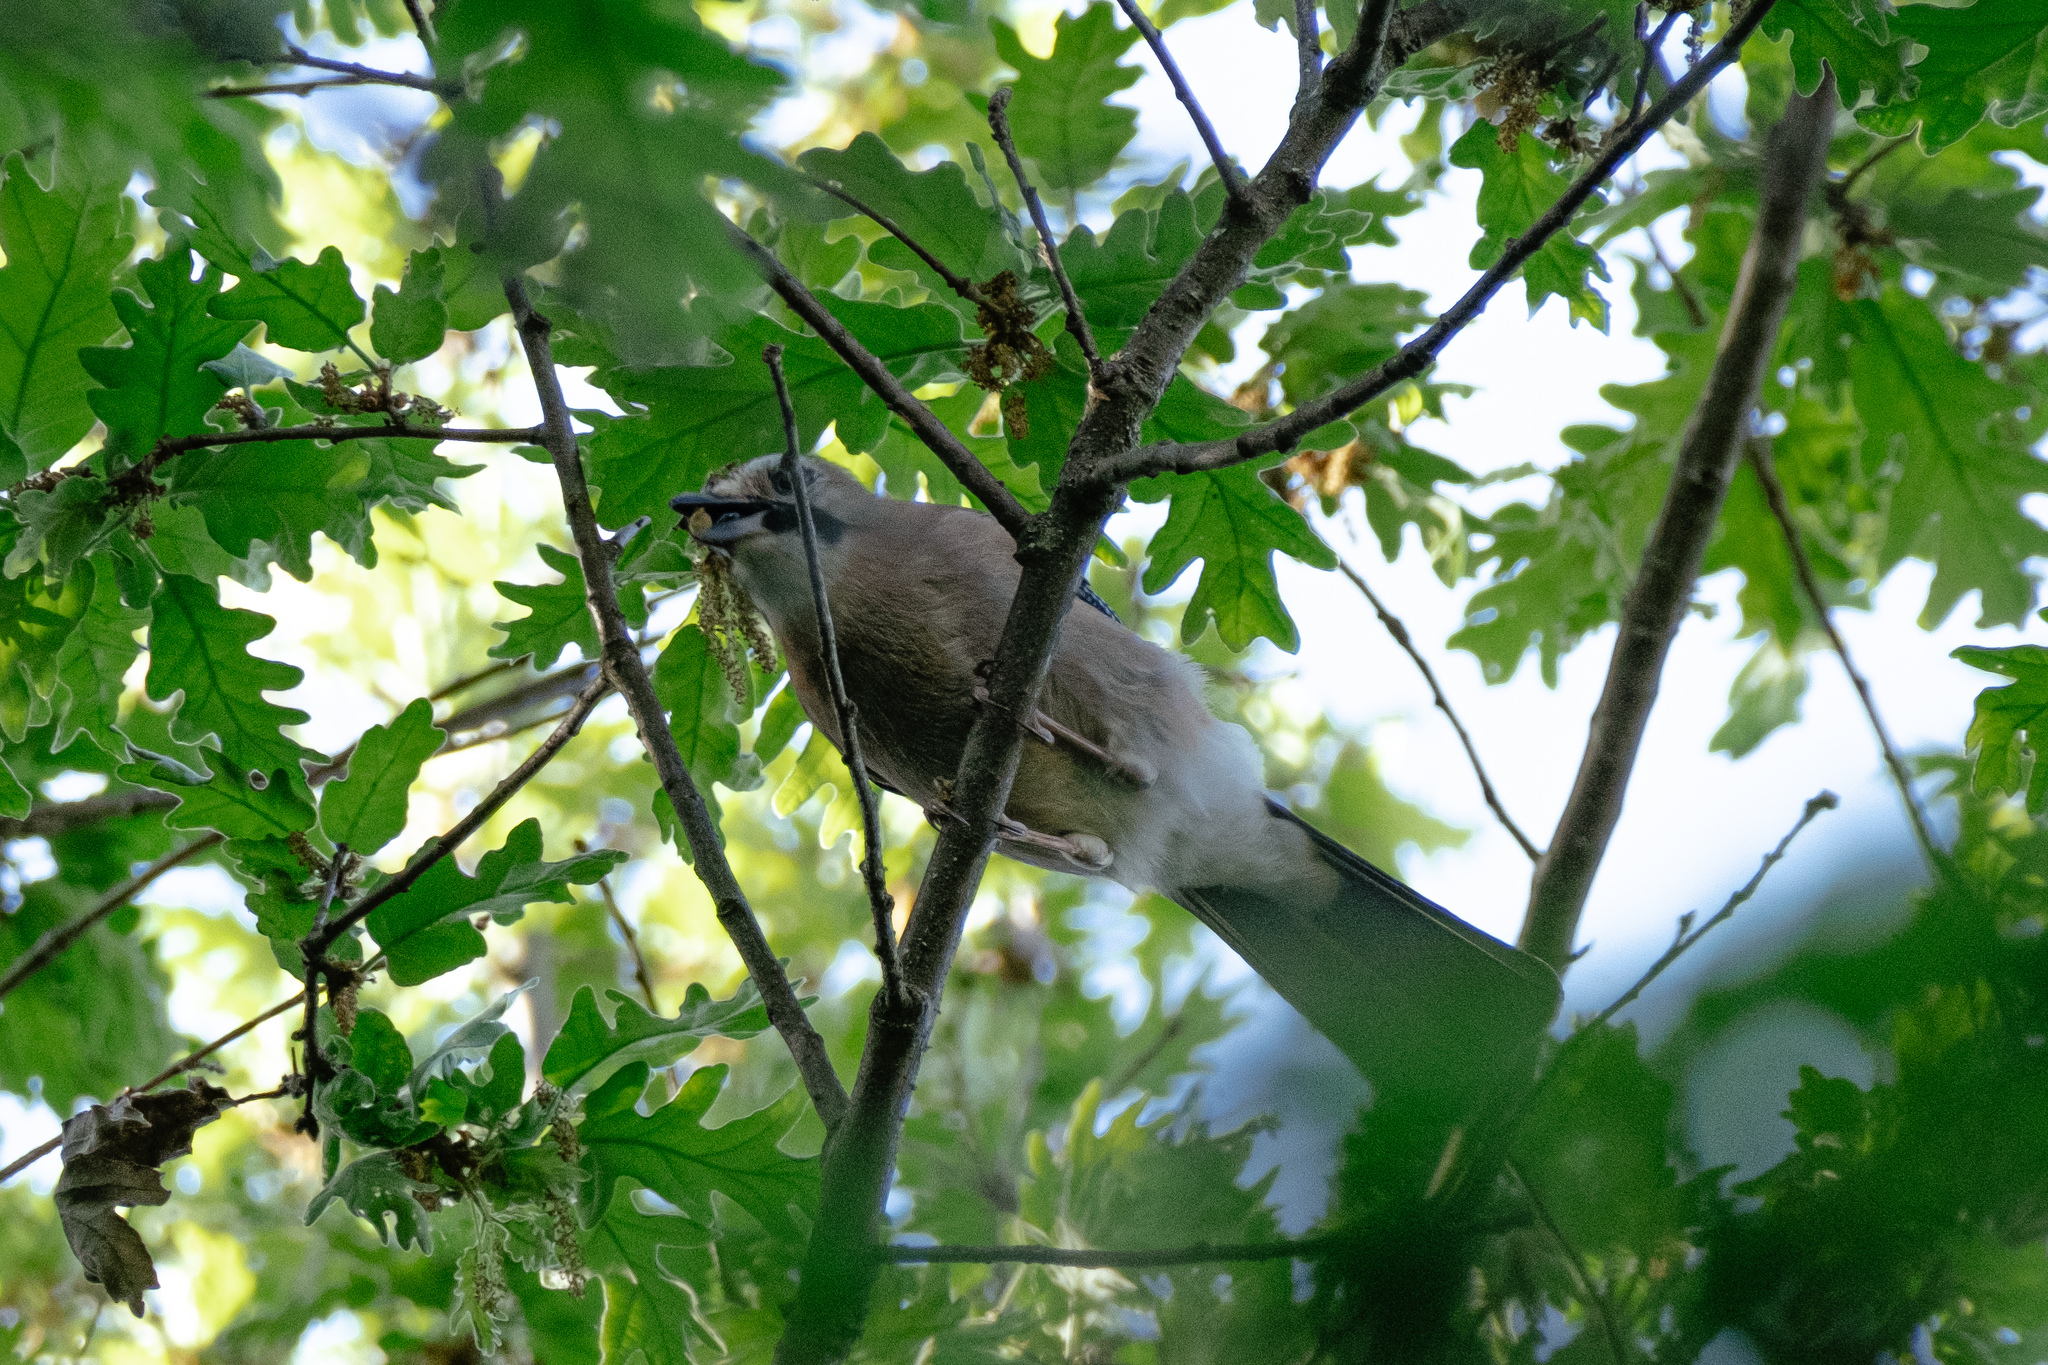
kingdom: Animalia
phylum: Chordata
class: Aves
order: Passeriformes
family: Corvidae
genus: Garrulus
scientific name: Garrulus glandarius
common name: Eurasian jay
